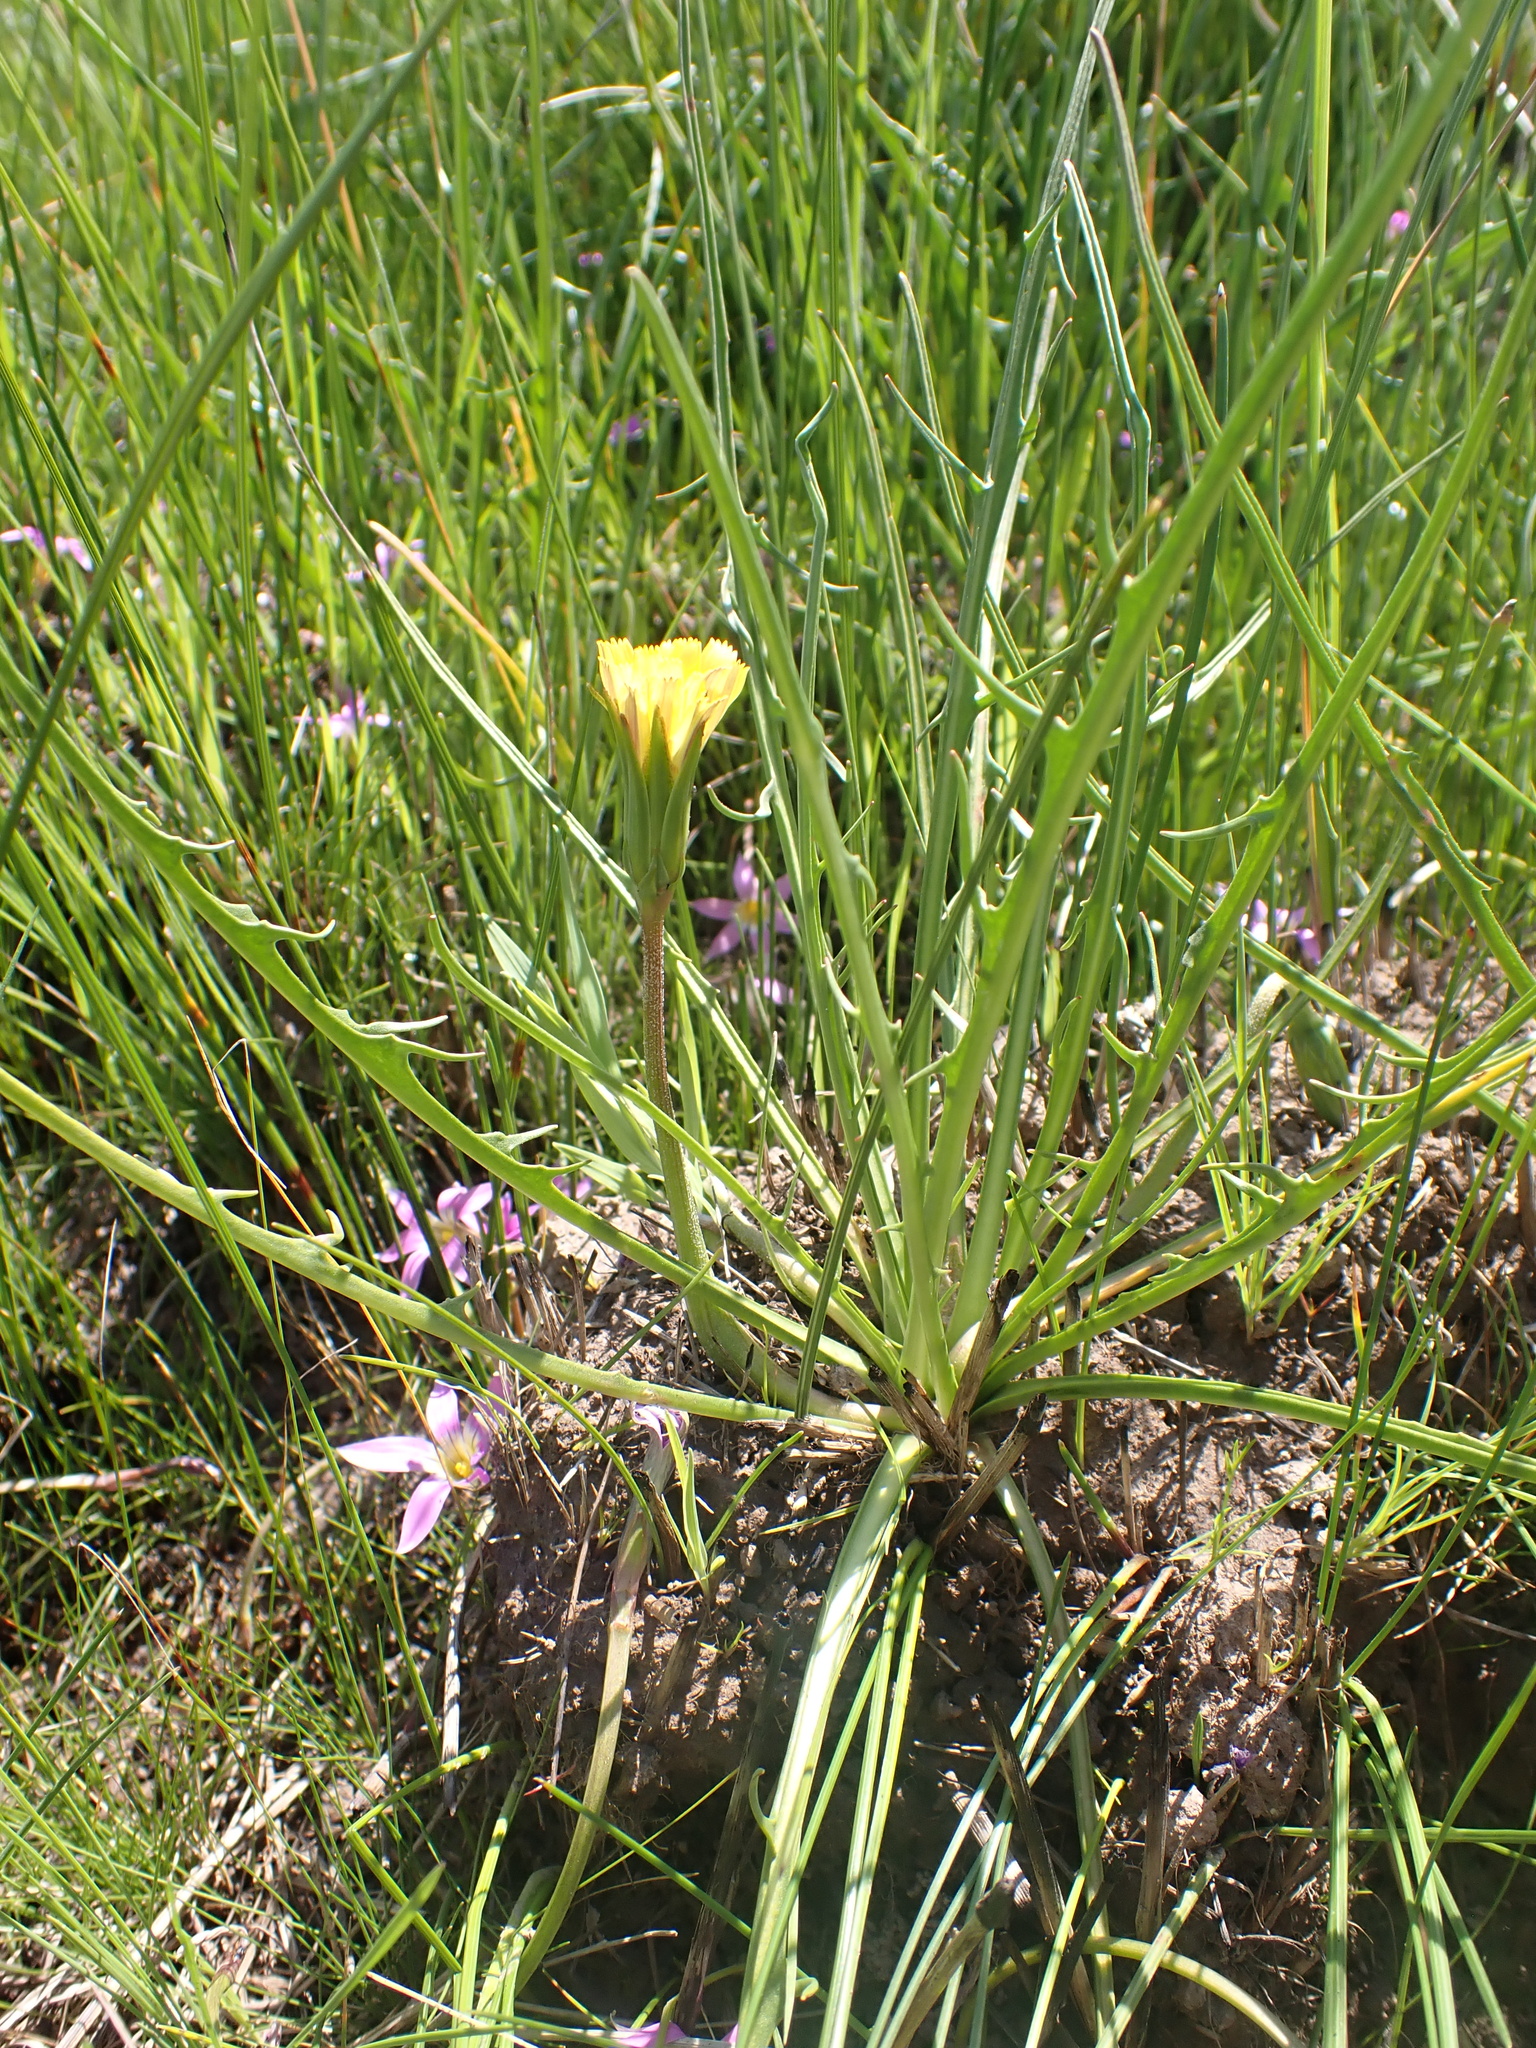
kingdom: Plantae
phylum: Tracheophyta
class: Magnoliopsida
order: Asterales
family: Asteraceae
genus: Microseris
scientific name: Microseris scapigera
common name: Yam daisy
